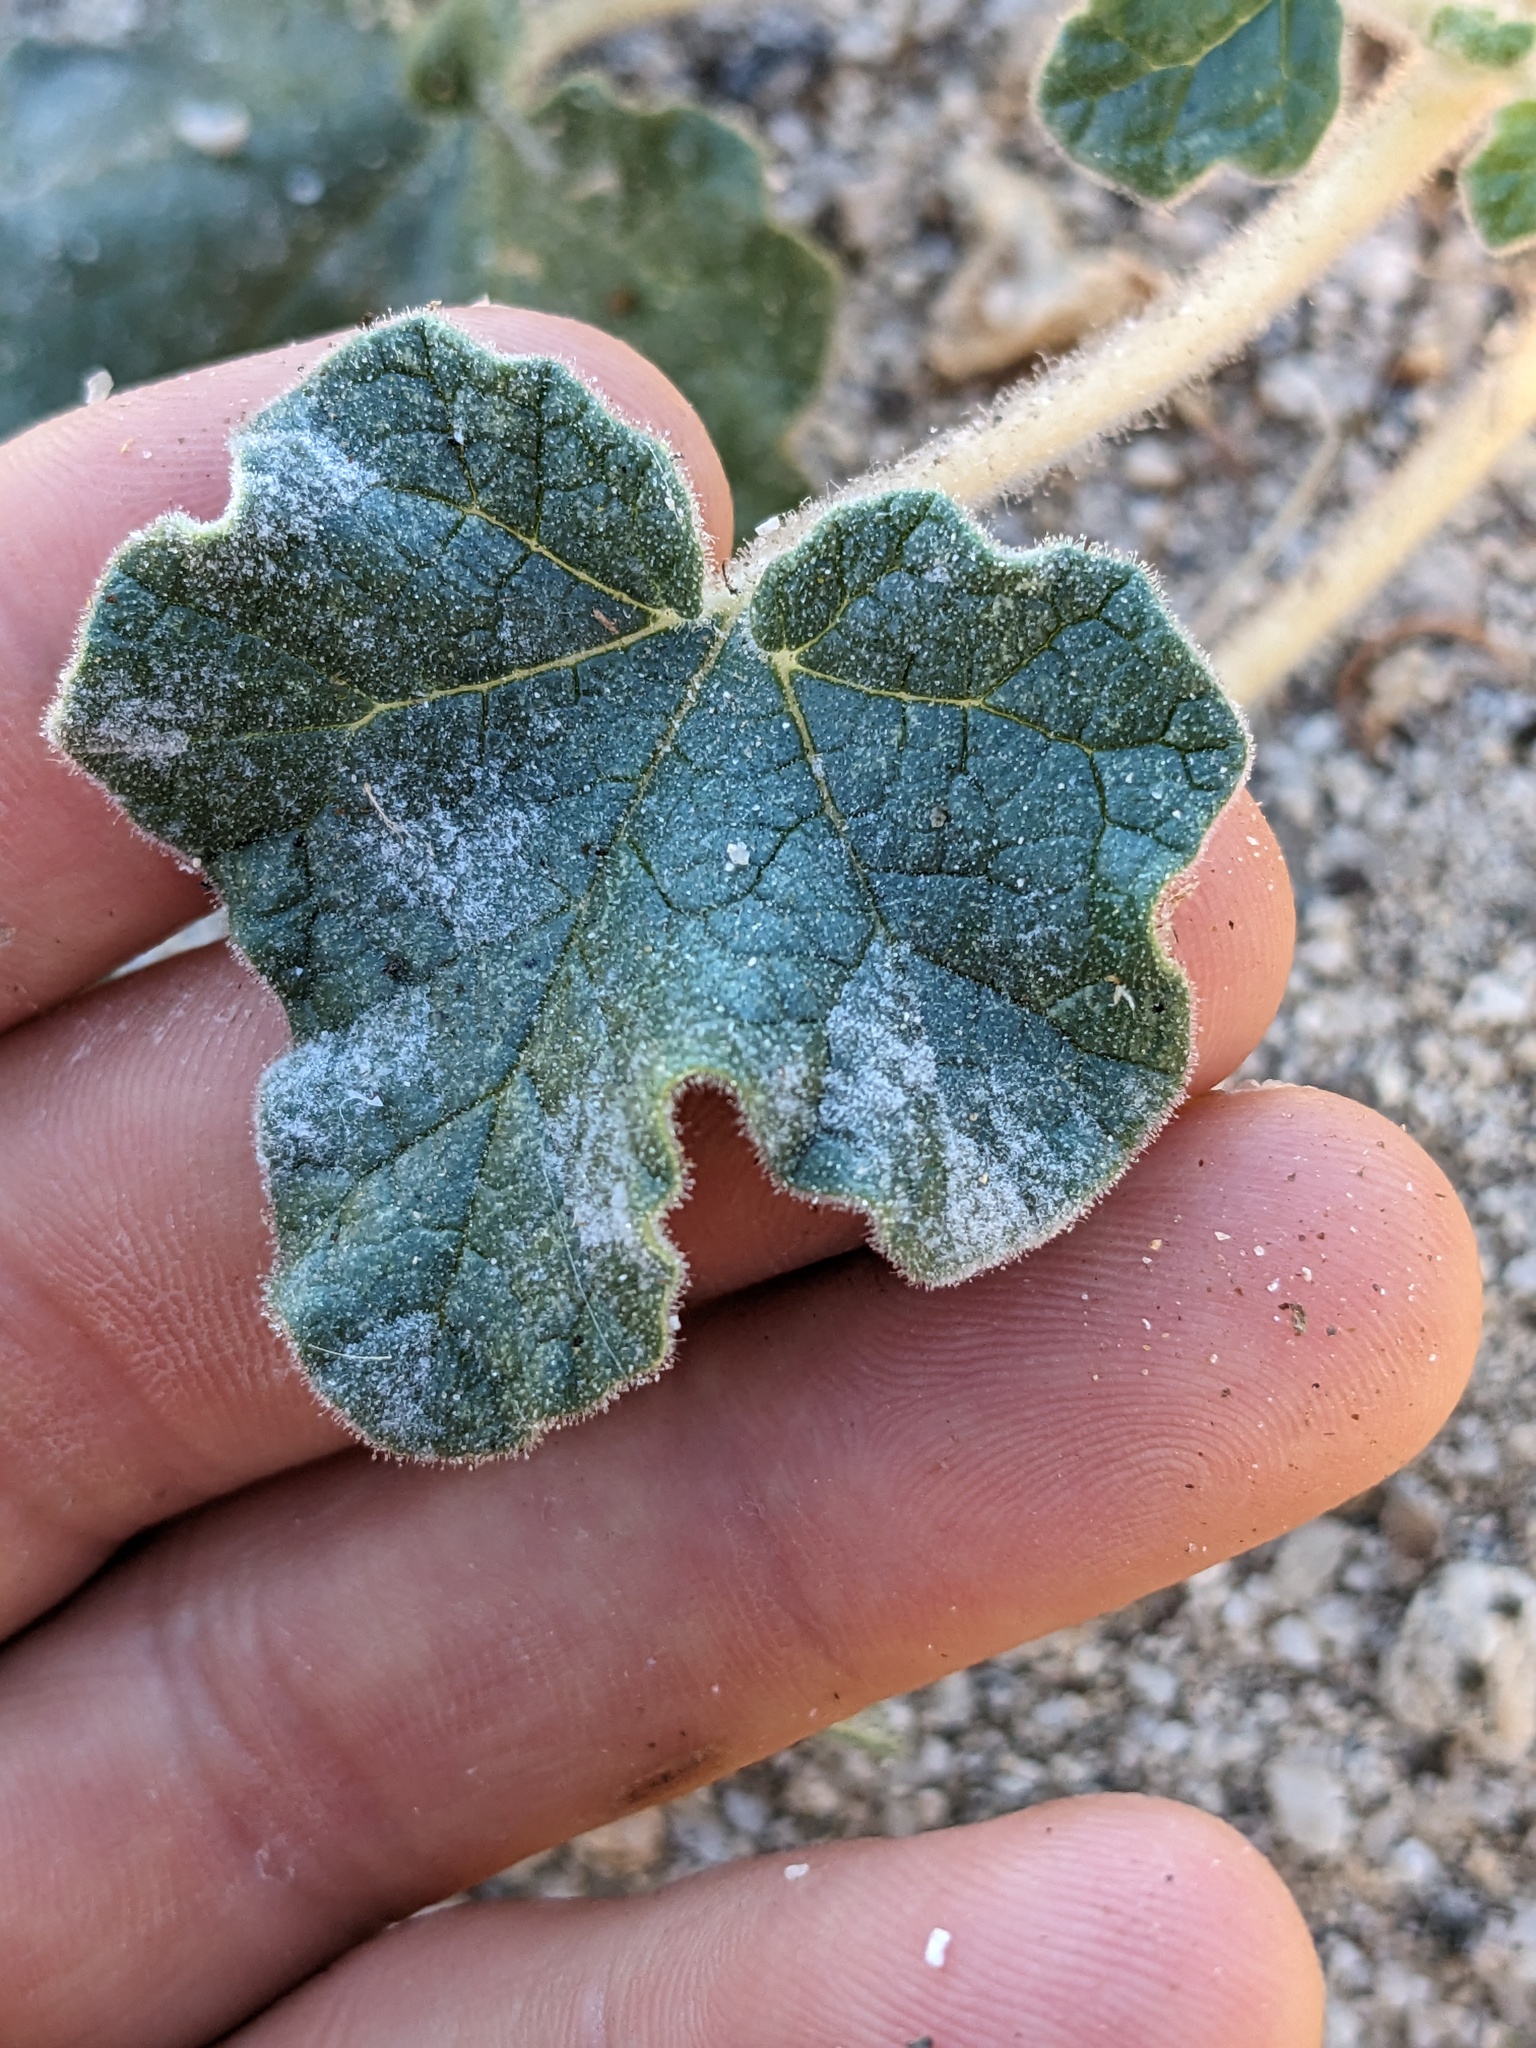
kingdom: Plantae
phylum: Tracheophyta
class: Magnoliopsida
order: Lamiales
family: Martyniaceae
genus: Proboscidea
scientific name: Proboscidea althaeifolia
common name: Desert unicorn-plant
